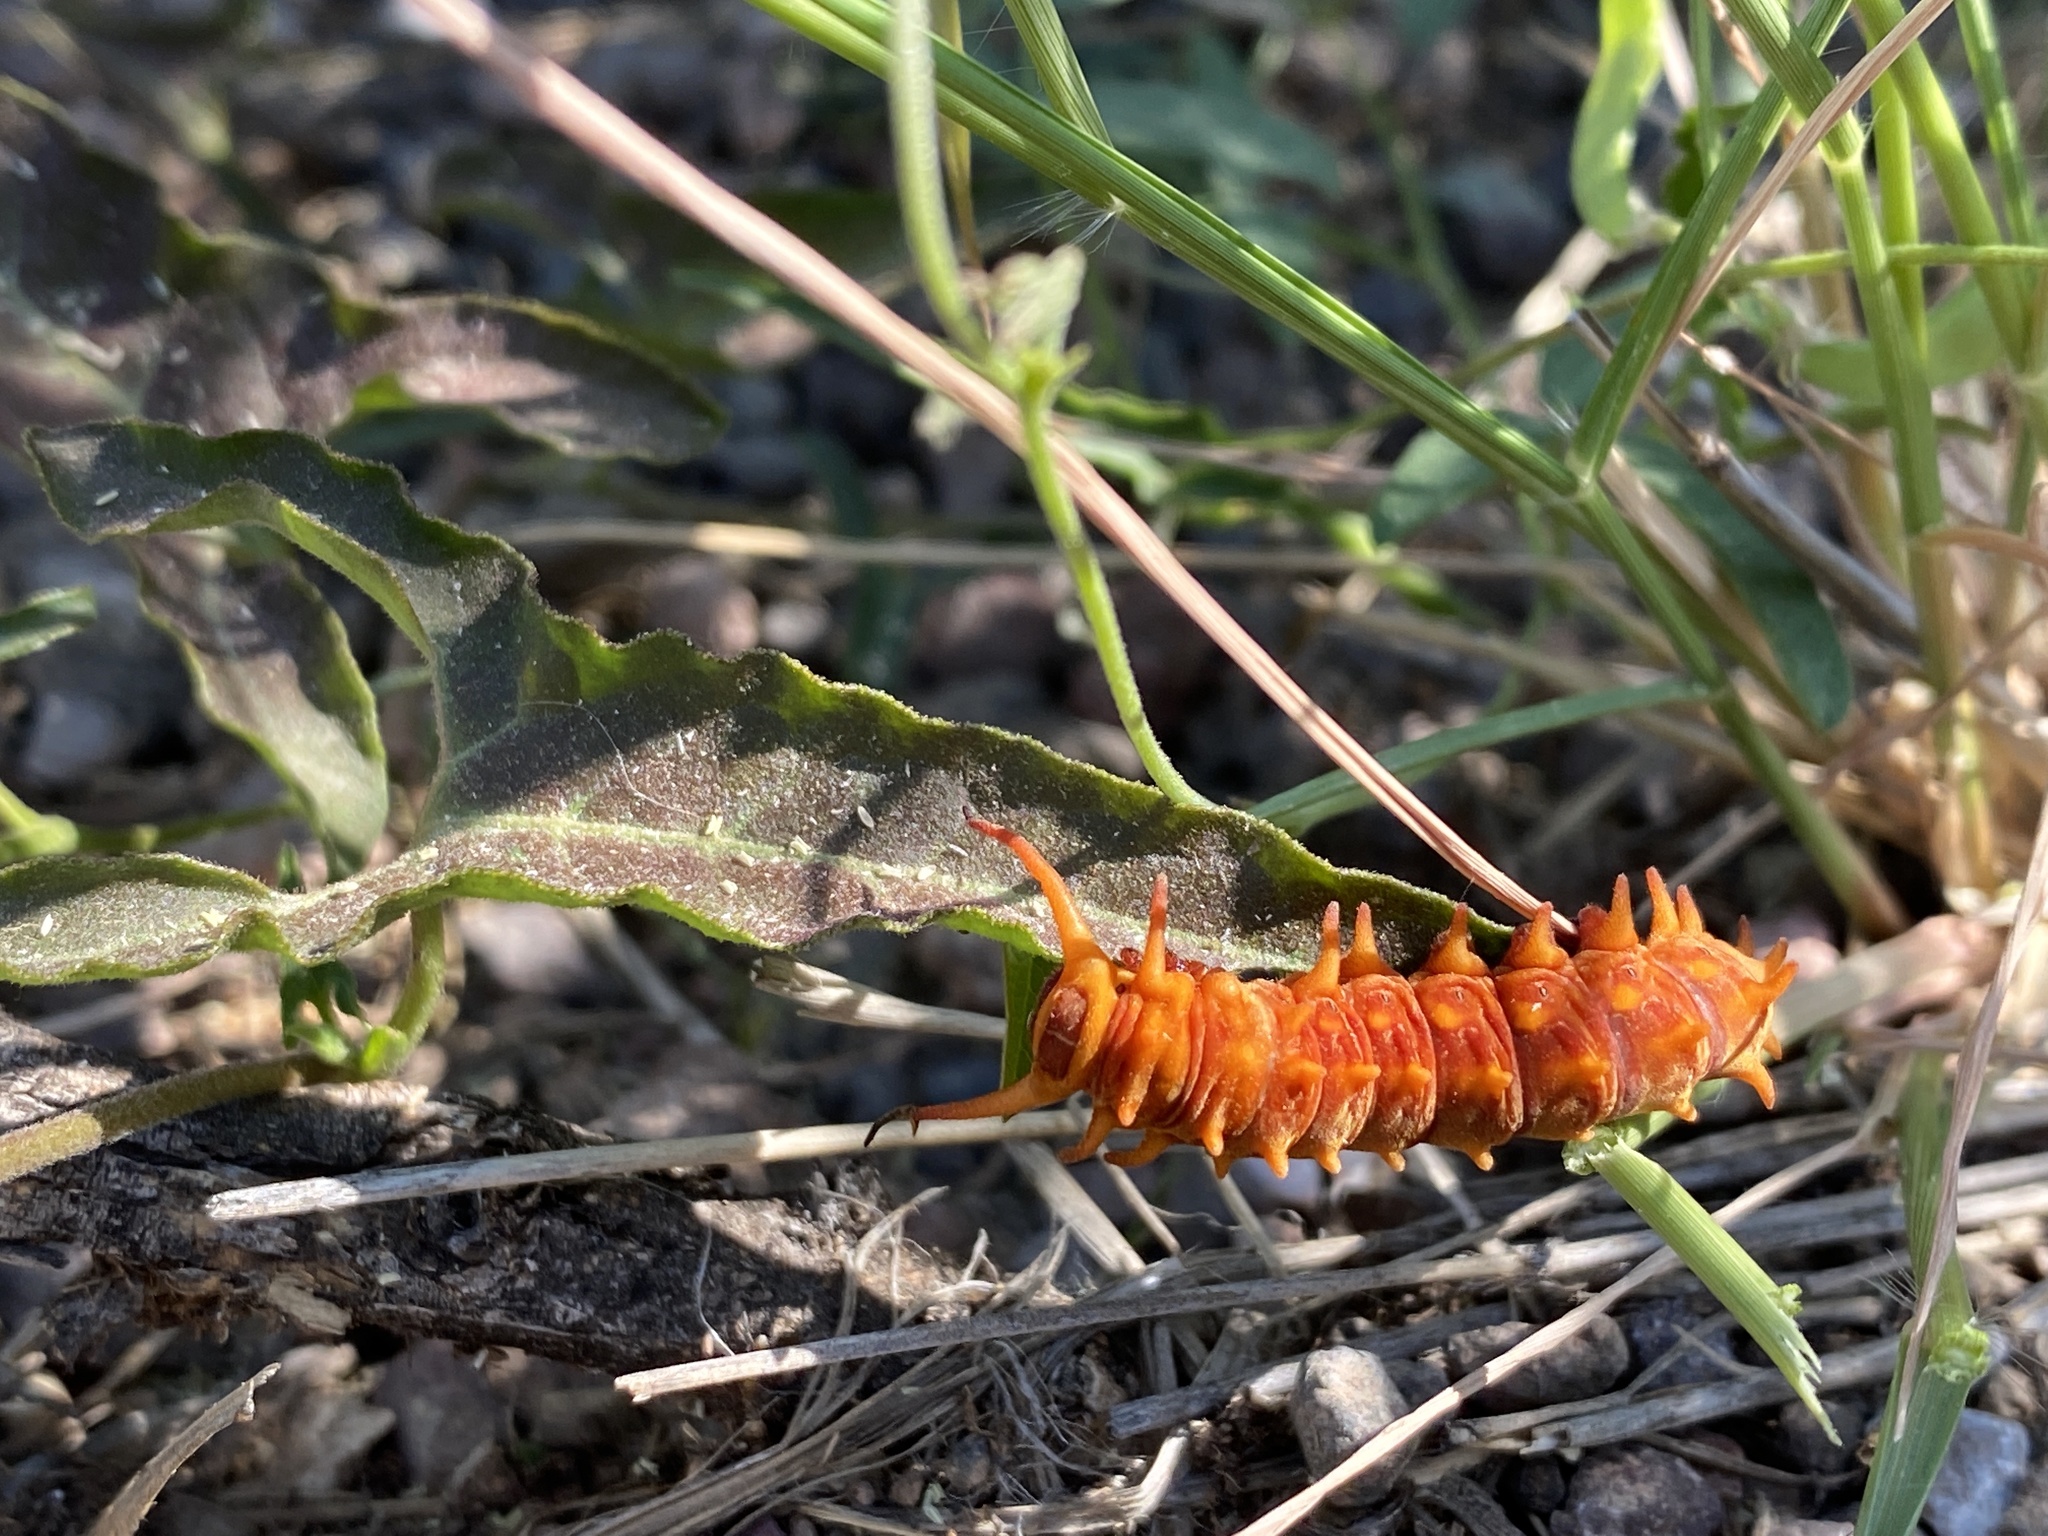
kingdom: Animalia
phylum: Arthropoda
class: Insecta
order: Lepidoptera
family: Papilionidae
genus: Battus
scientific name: Battus philenor
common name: Pipevine swallowtail
